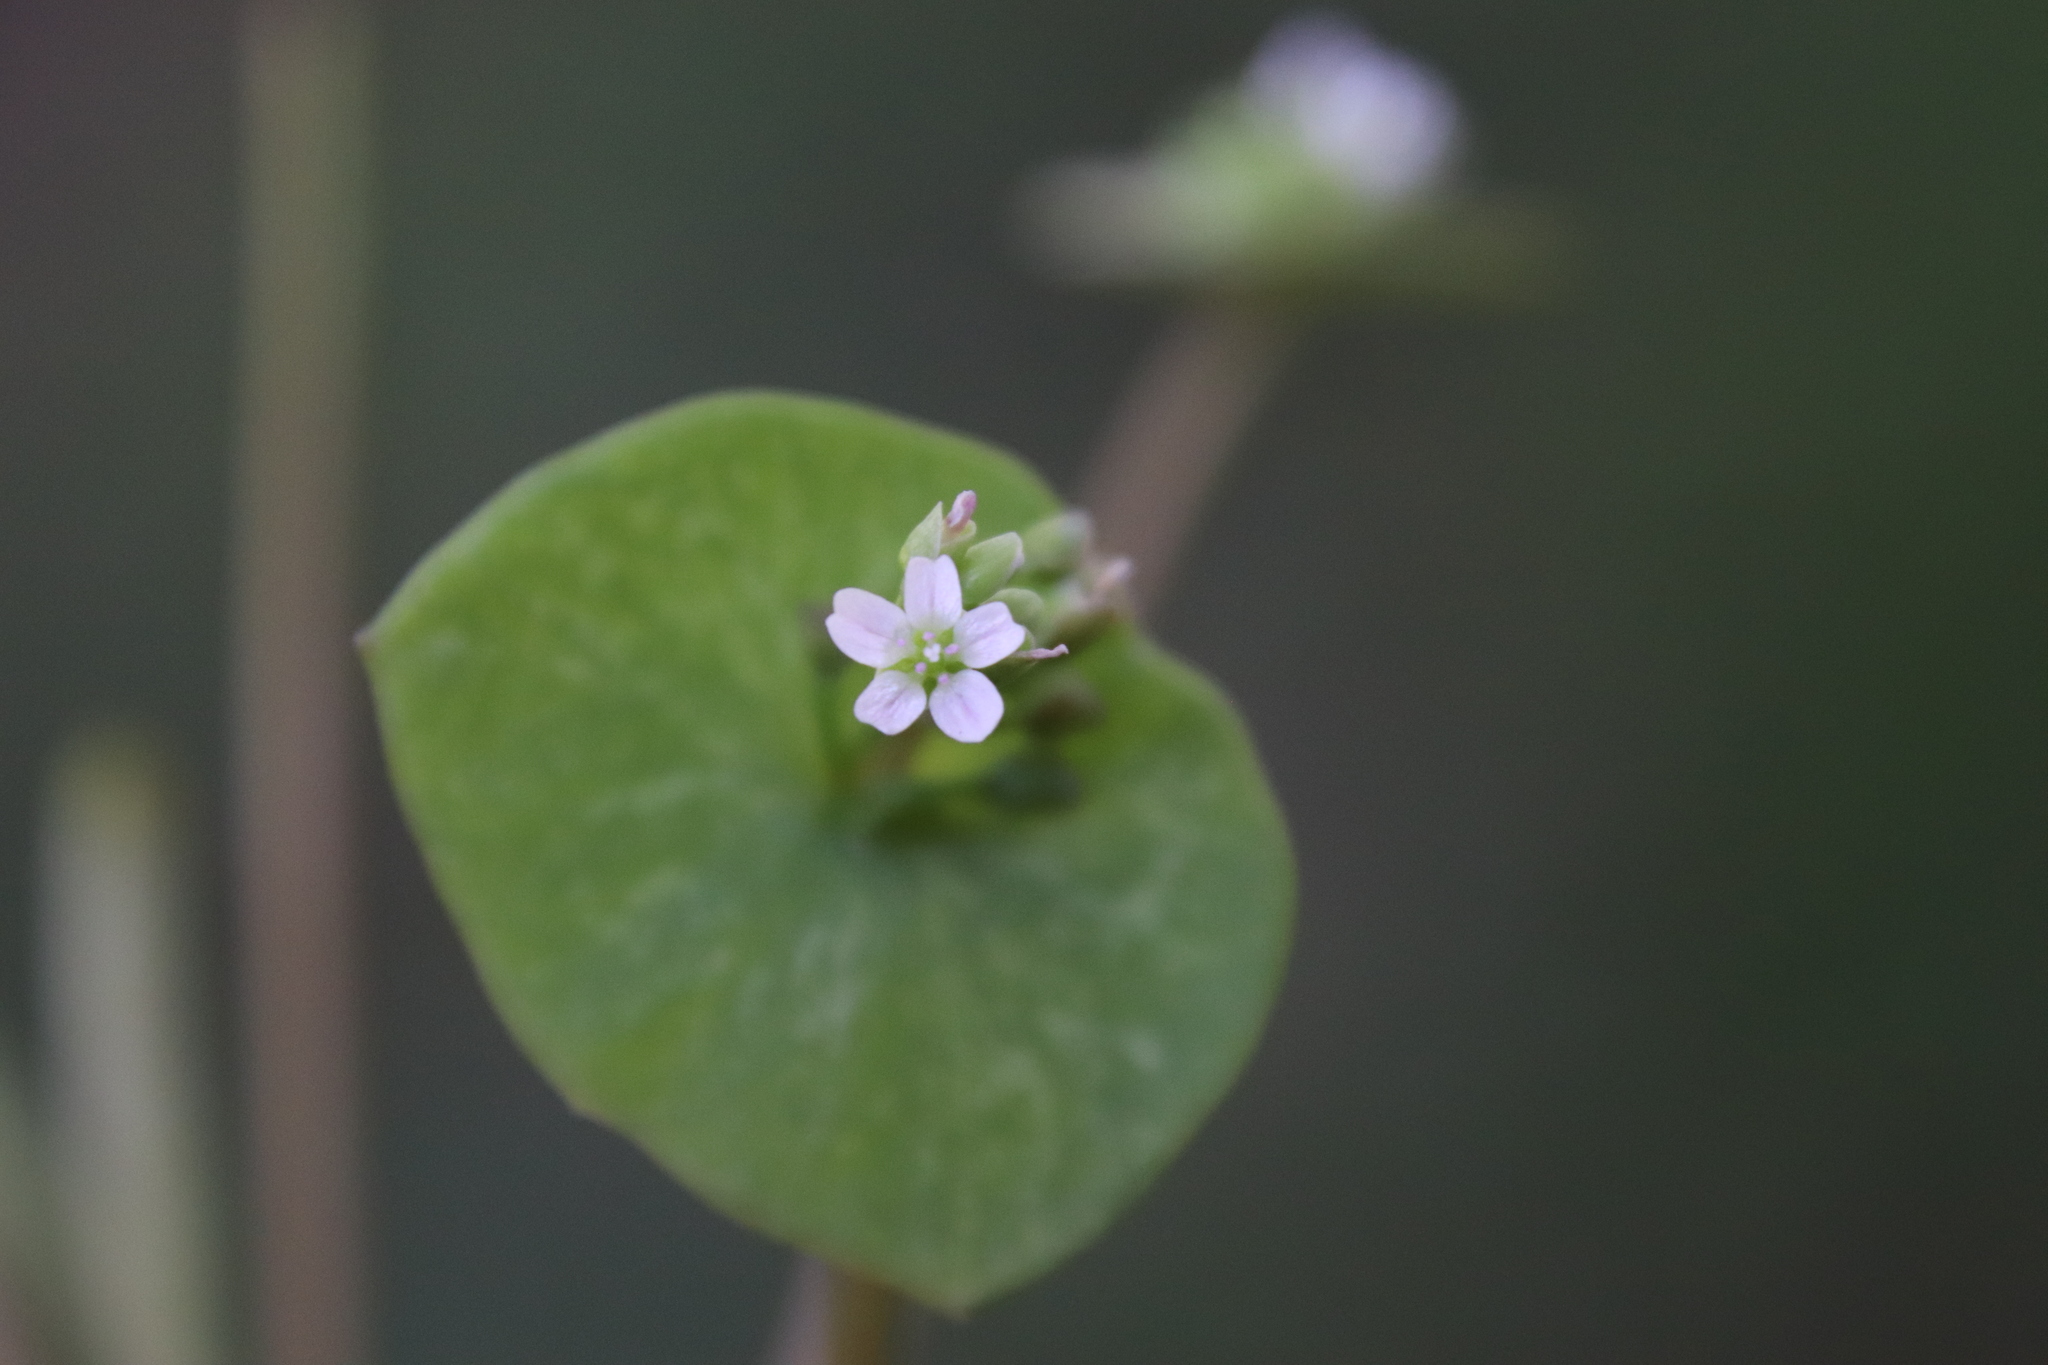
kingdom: Plantae
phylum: Tracheophyta
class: Magnoliopsida
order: Caryophyllales
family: Montiaceae
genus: Claytonia
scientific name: Claytonia parviflora
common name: Indian-lettuce
